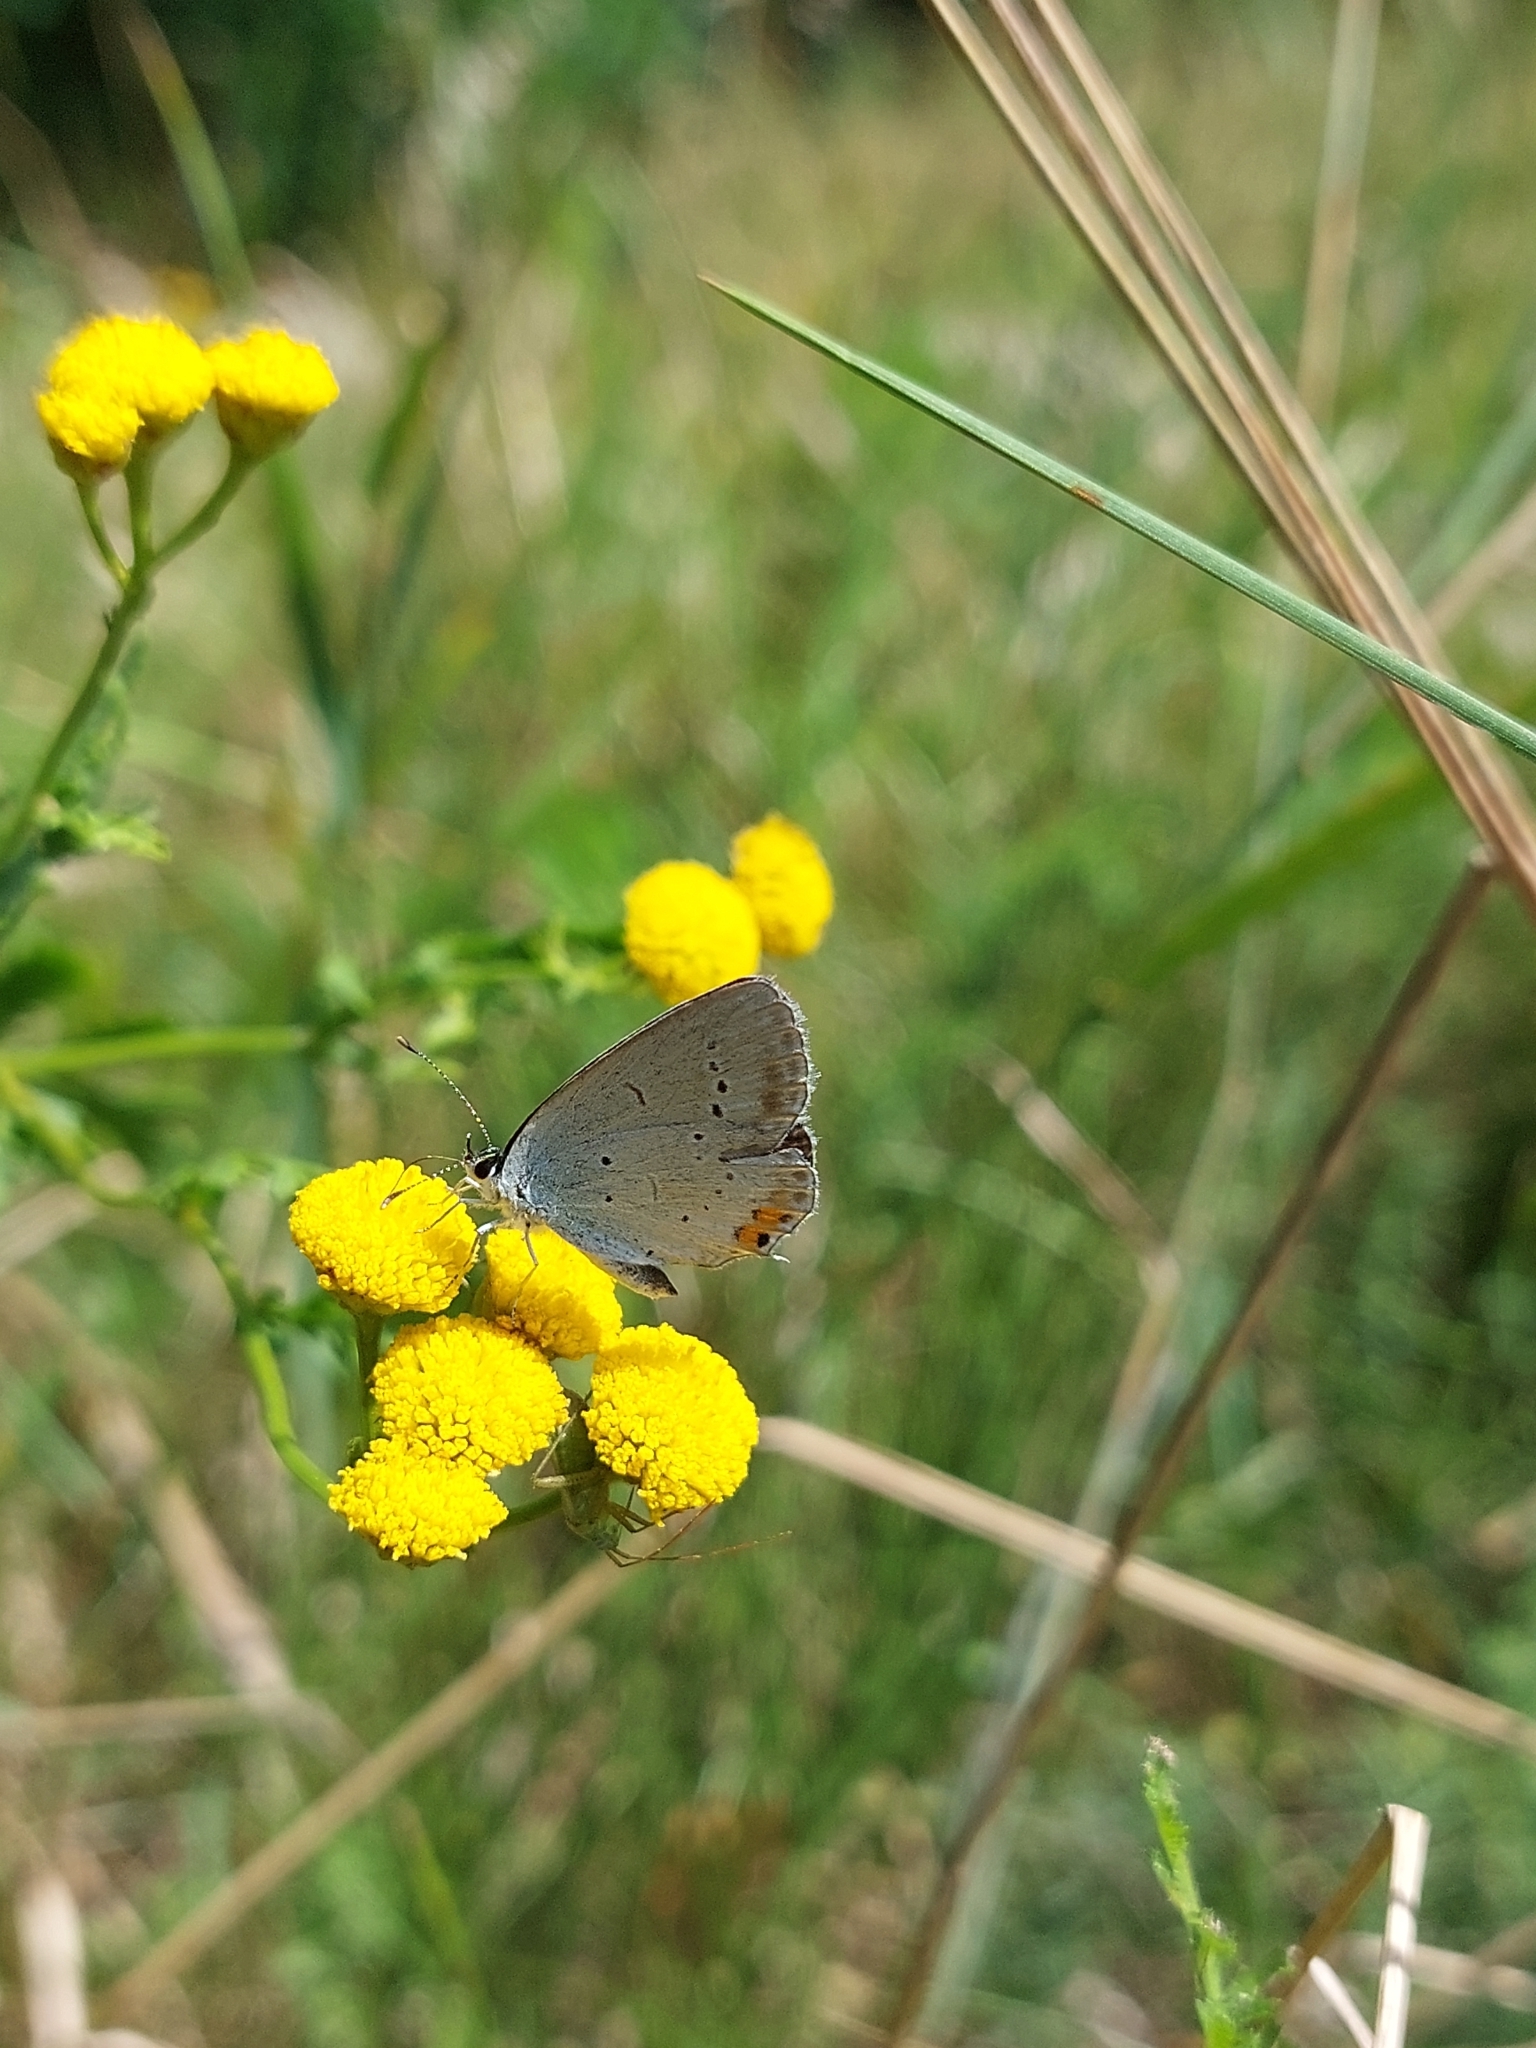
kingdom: Animalia
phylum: Arthropoda
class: Insecta
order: Lepidoptera
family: Lycaenidae
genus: Elkalyce
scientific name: Elkalyce argiades
